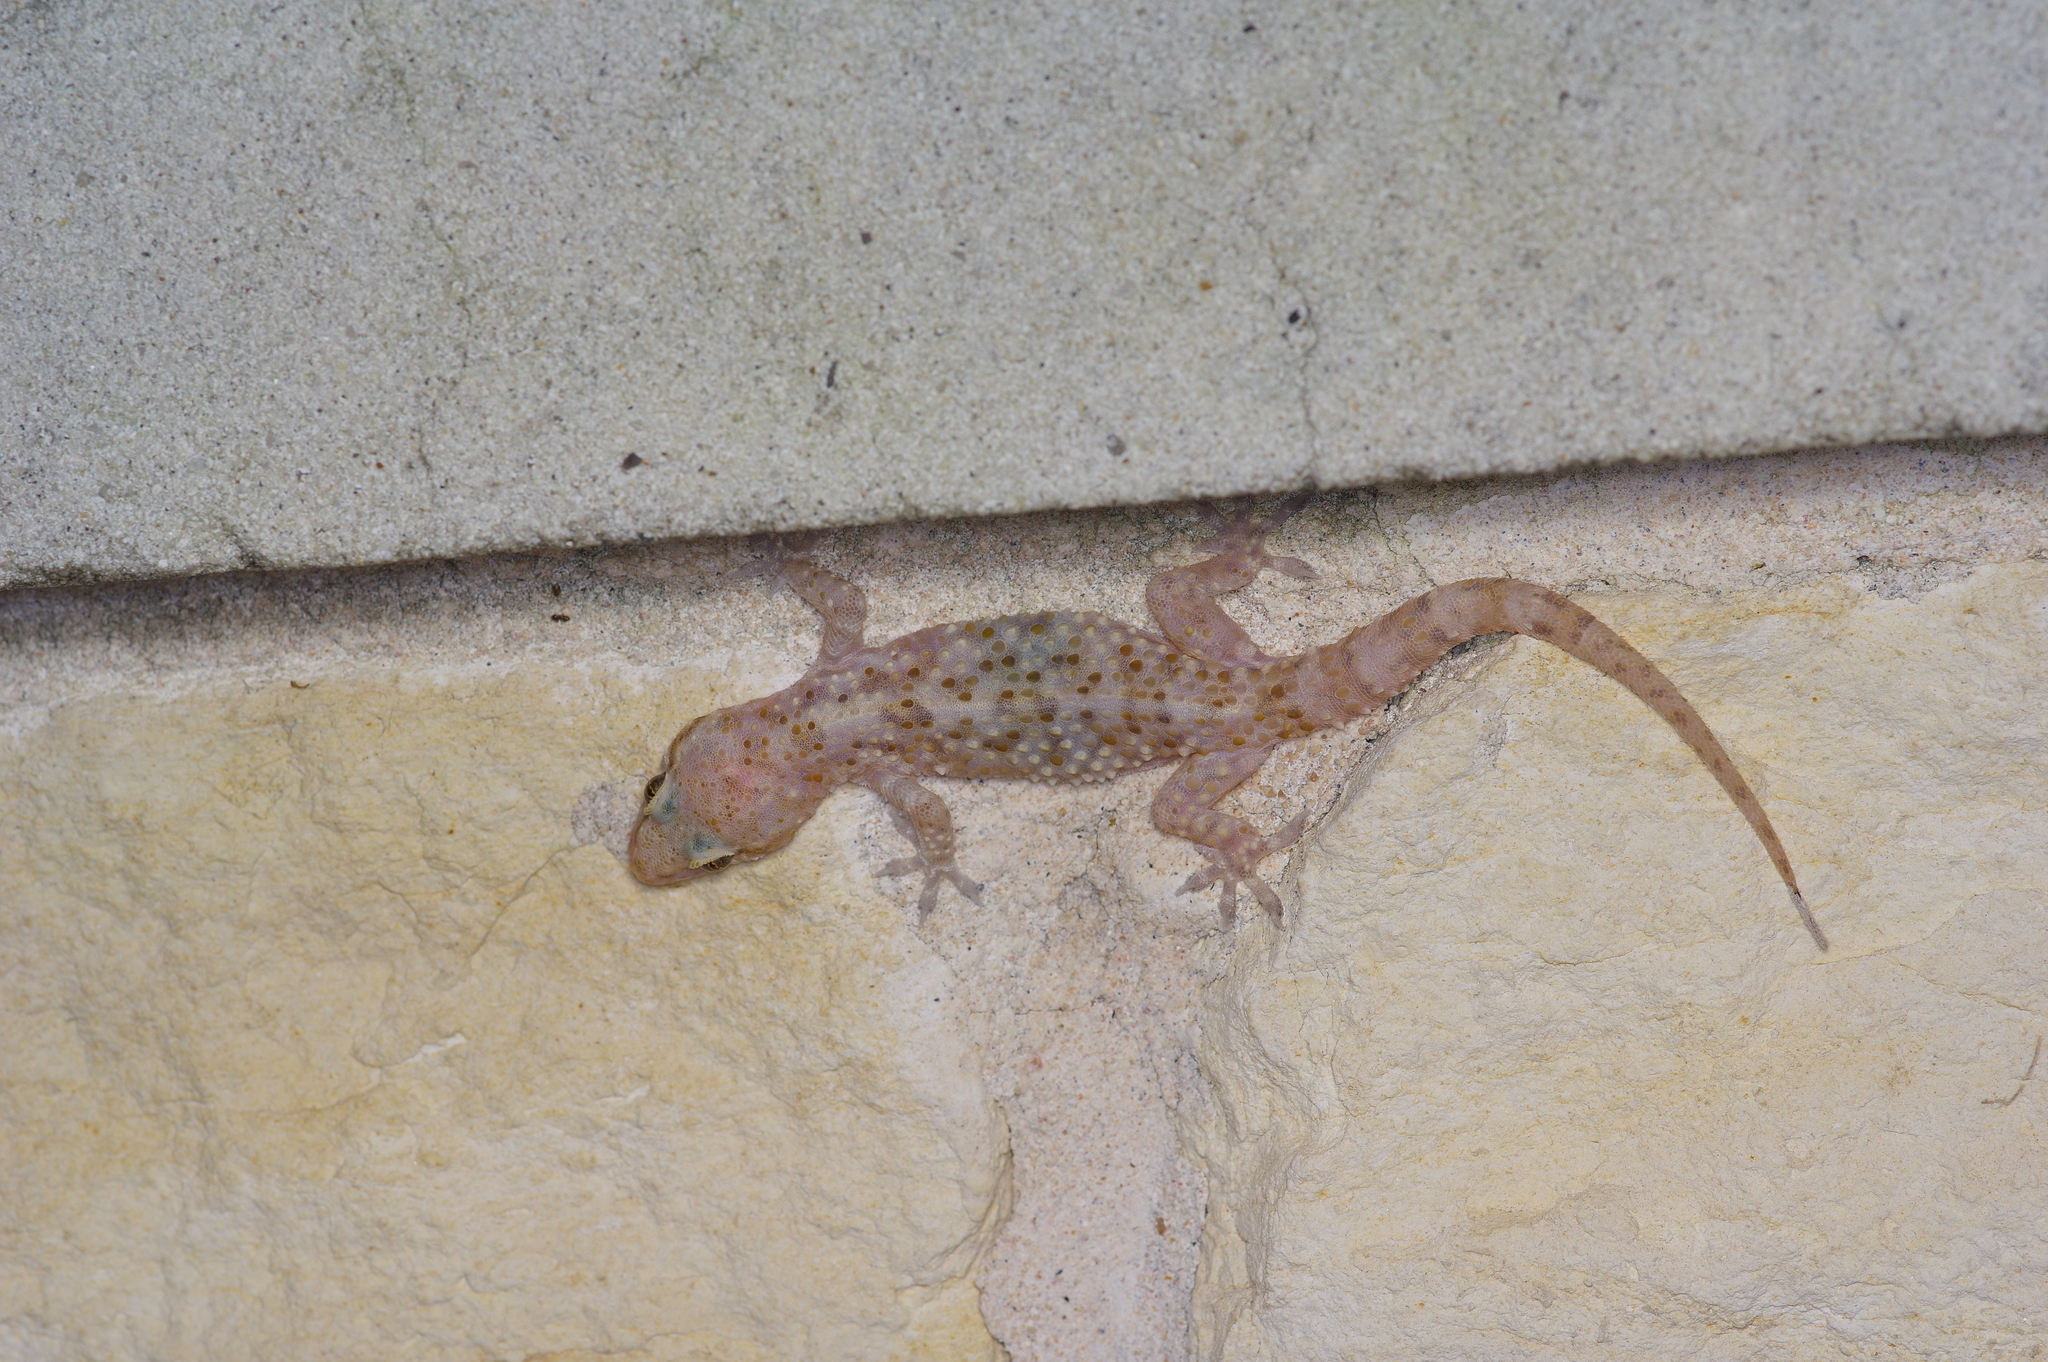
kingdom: Animalia
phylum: Chordata
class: Squamata
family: Gekkonidae
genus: Hemidactylus
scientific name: Hemidactylus turcicus
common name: Turkish gecko
